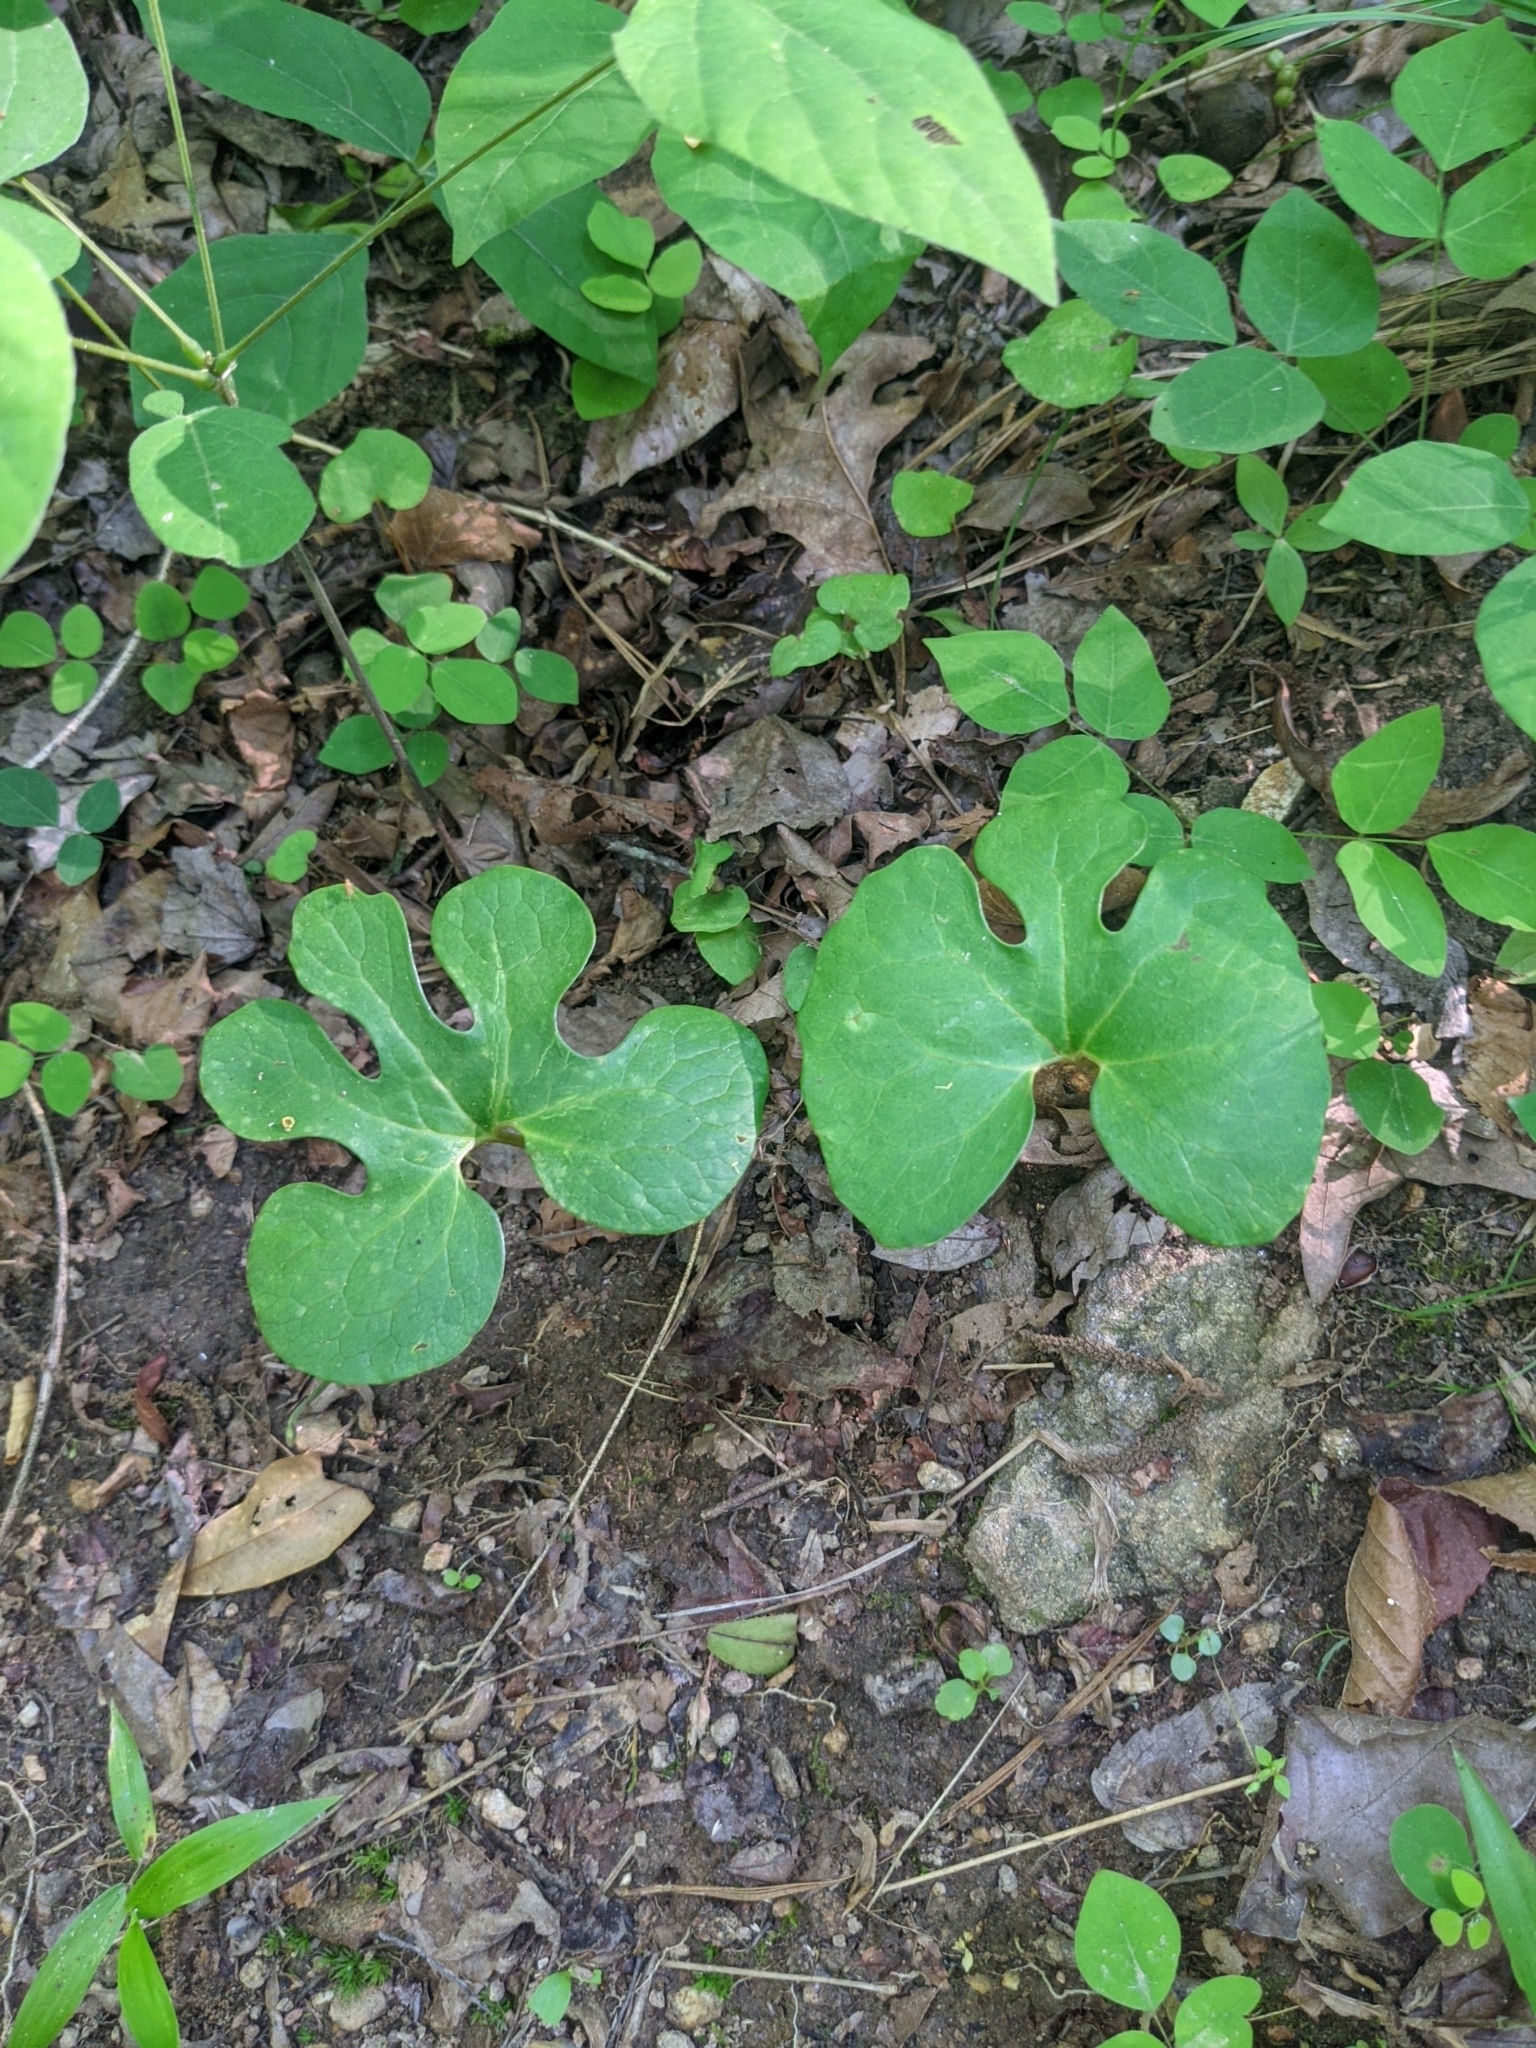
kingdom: Plantae
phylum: Tracheophyta
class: Magnoliopsida
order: Ranunculales
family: Papaveraceae
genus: Sanguinaria
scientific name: Sanguinaria canadensis
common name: Bloodroot
